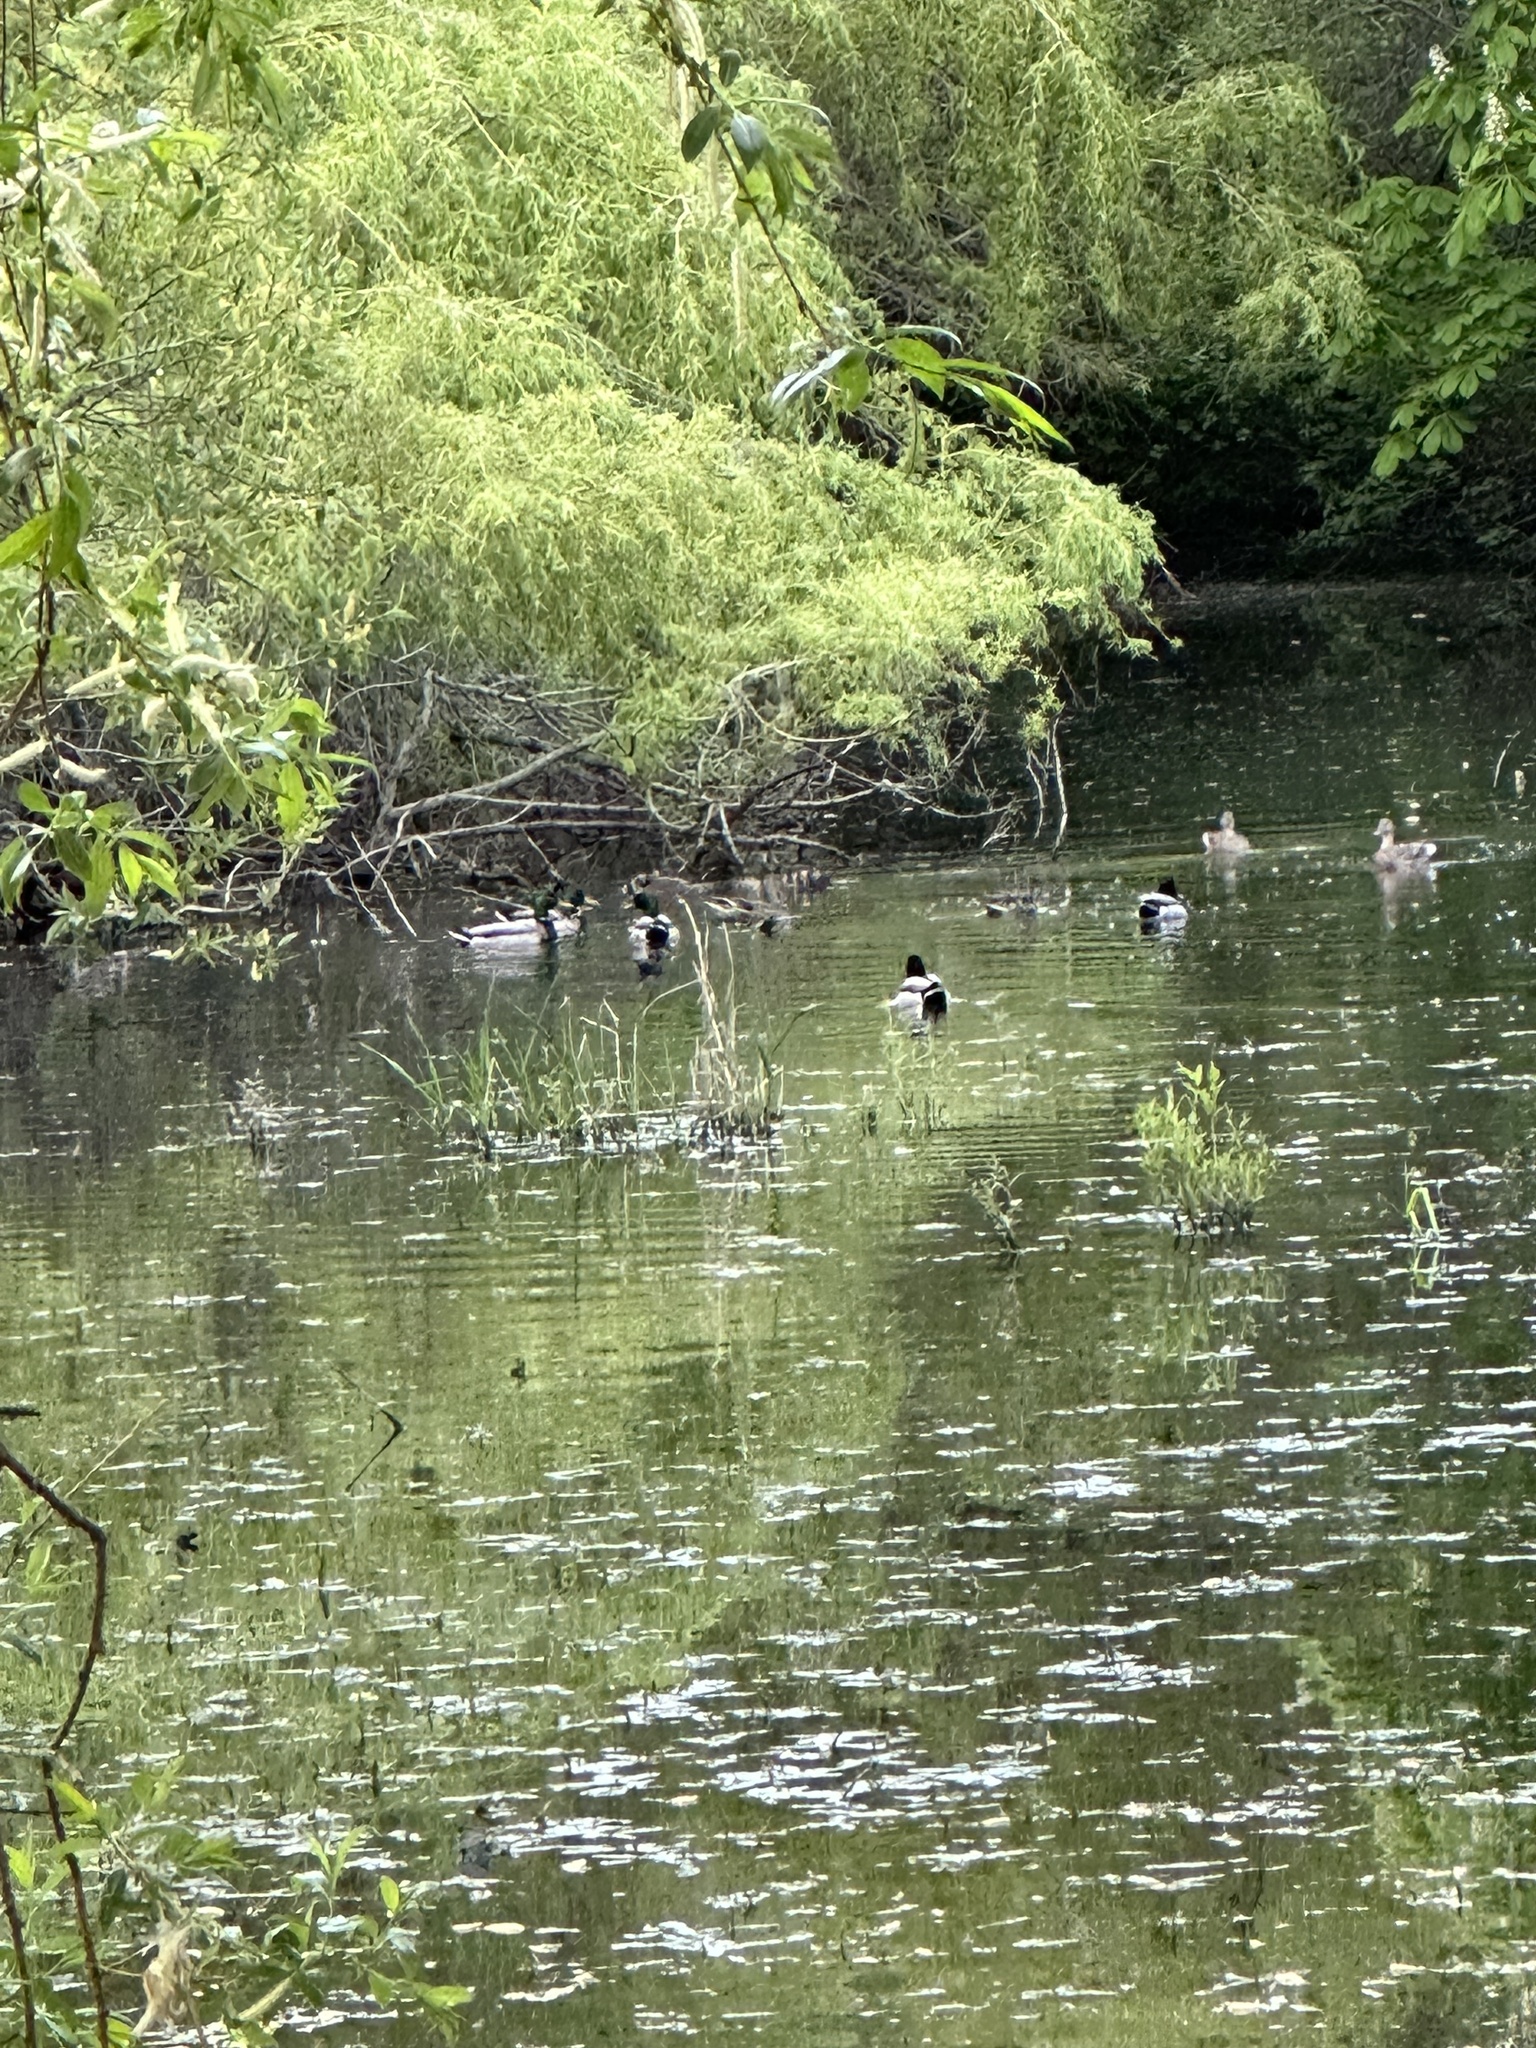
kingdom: Animalia
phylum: Chordata
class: Mammalia
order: Carnivora
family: Procyonidae
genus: Procyon
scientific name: Procyon lotor
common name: Raccoon
